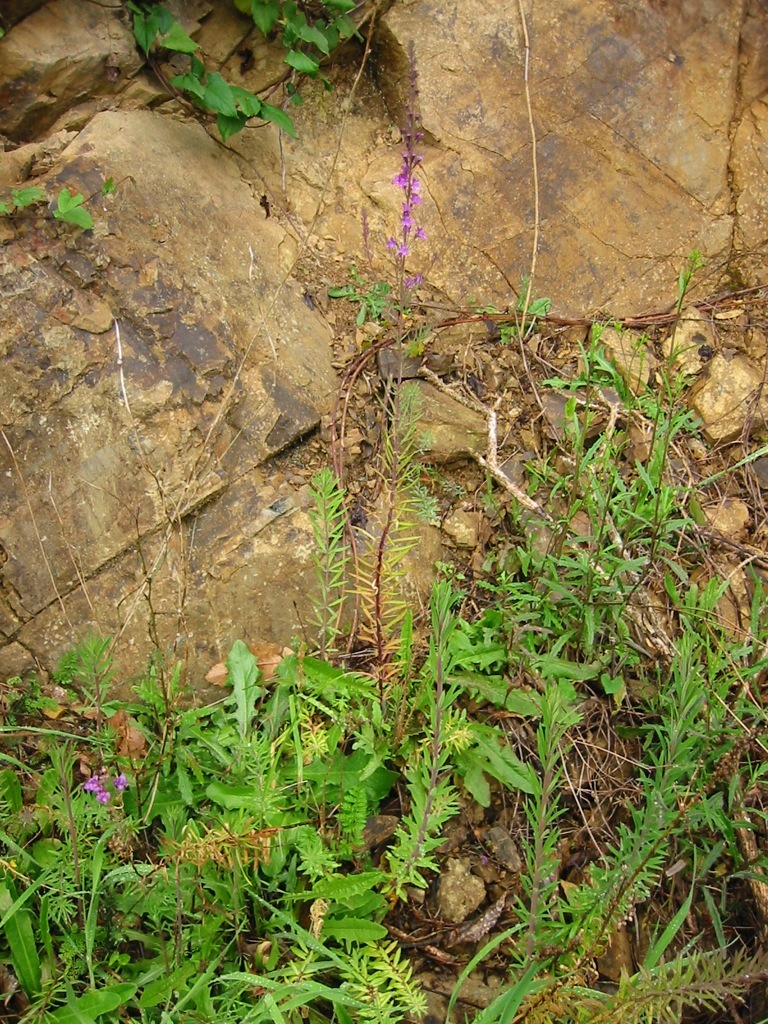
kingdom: Plantae
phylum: Tracheophyta
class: Magnoliopsida
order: Lamiales
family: Plantaginaceae
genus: Linaria
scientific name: Linaria purpurea
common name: Purple toadflax
